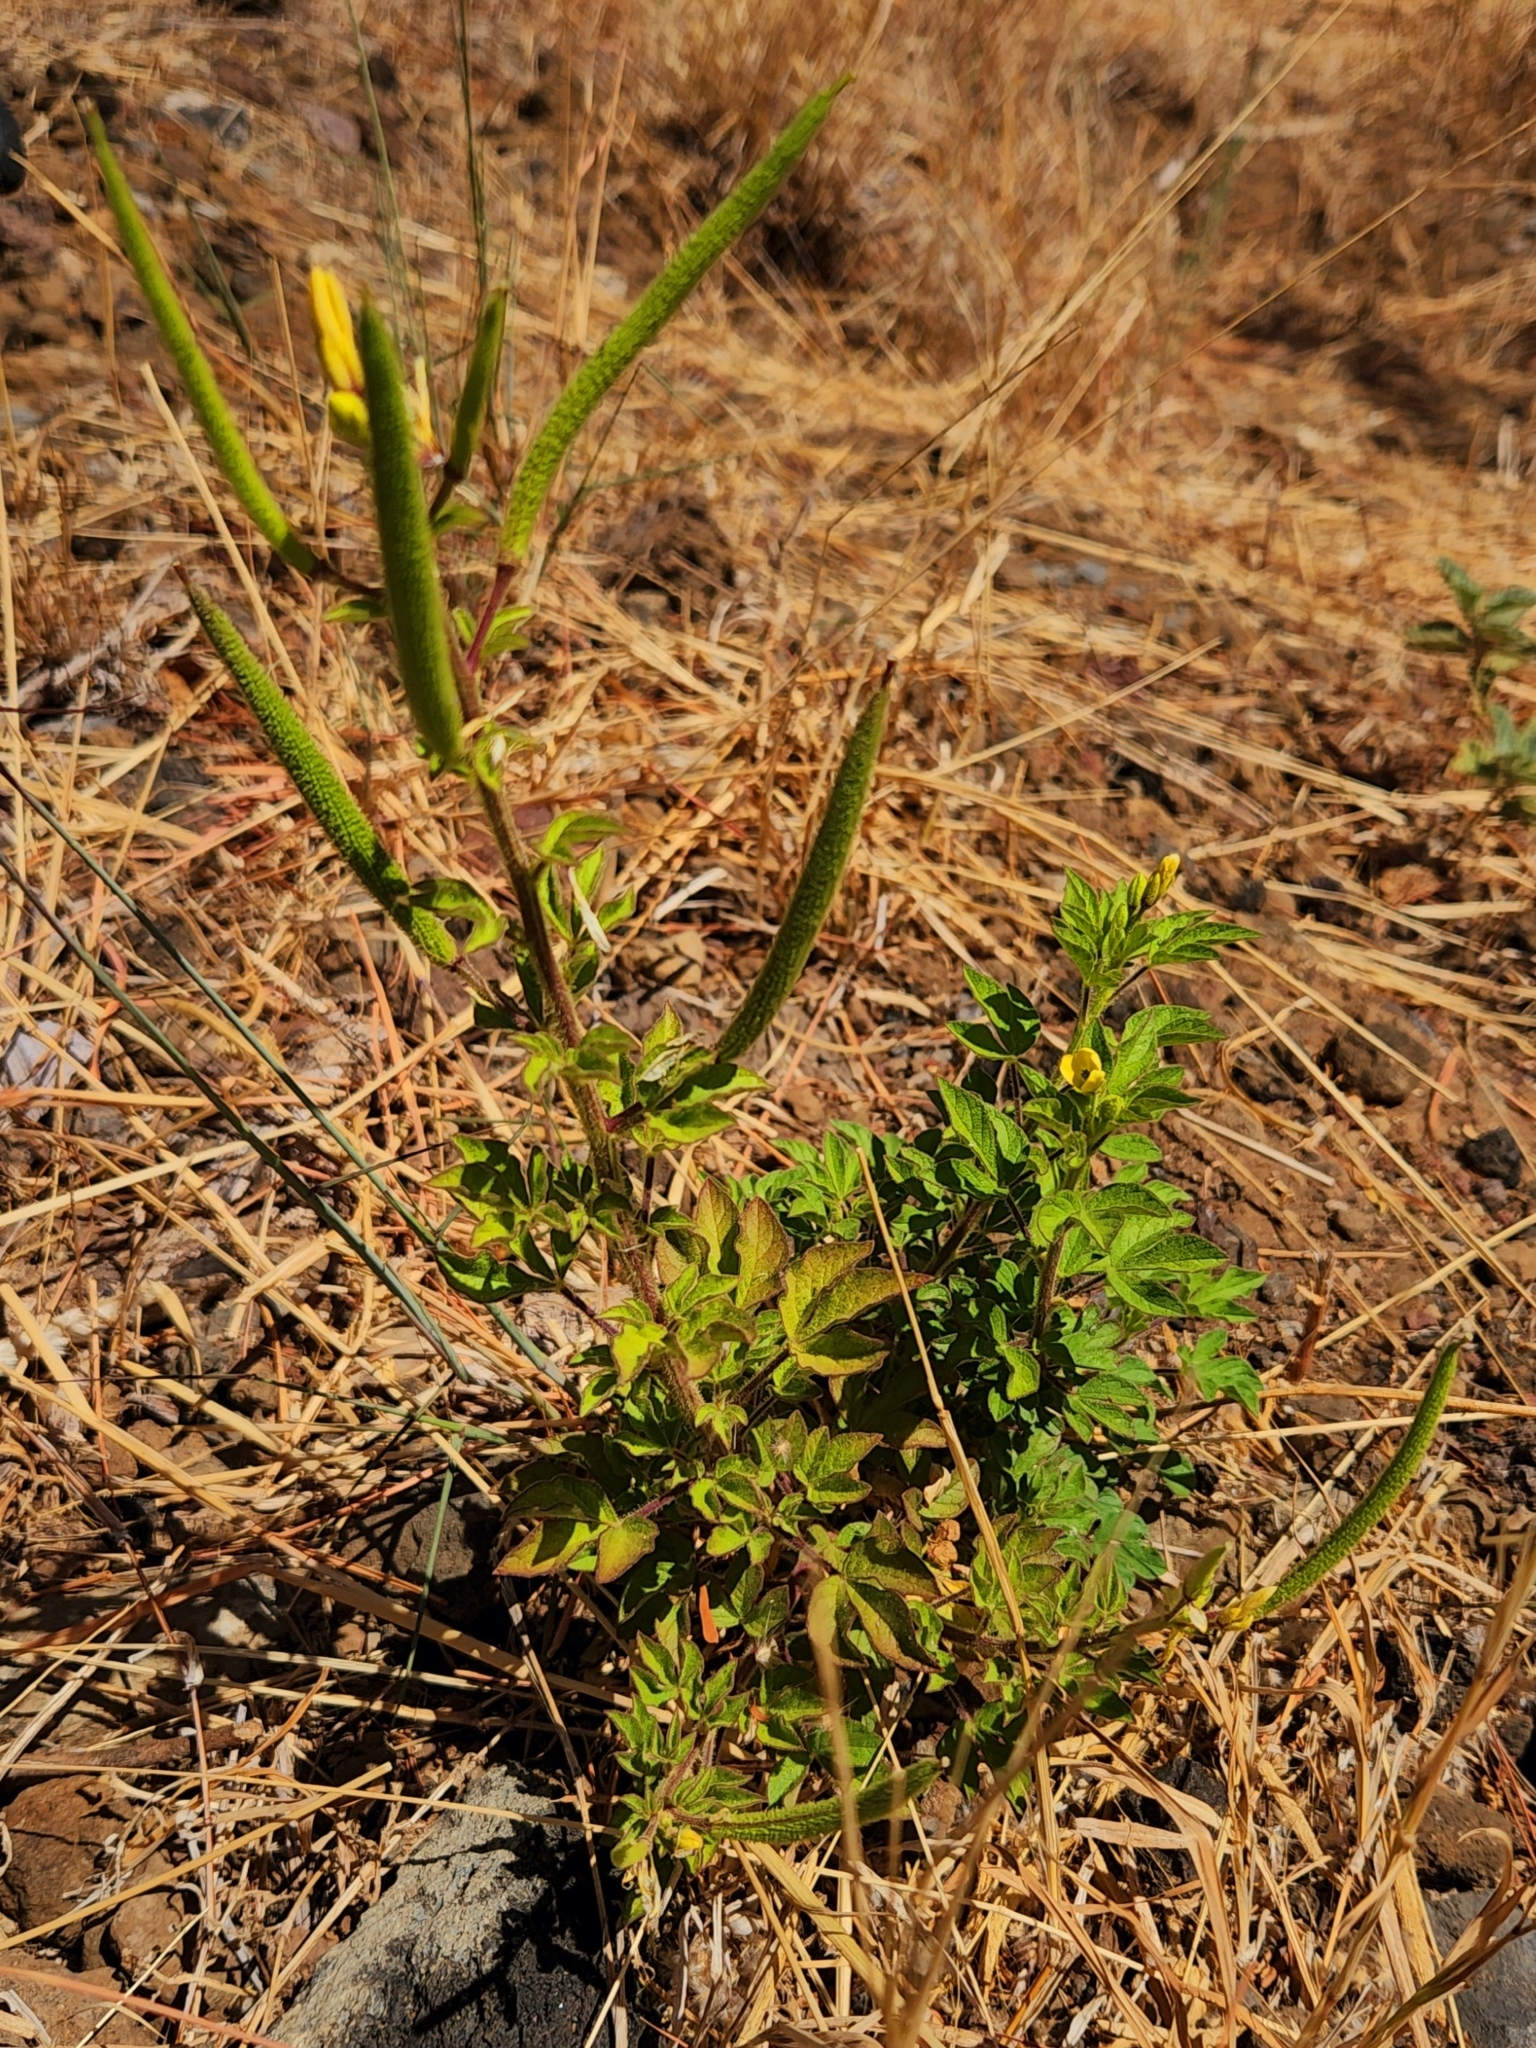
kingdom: Plantae
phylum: Tracheophyta
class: Magnoliopsida
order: Brassicales
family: Cleomaceae
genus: Arivela
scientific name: Arivela viscosa
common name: Asian spiderflower
